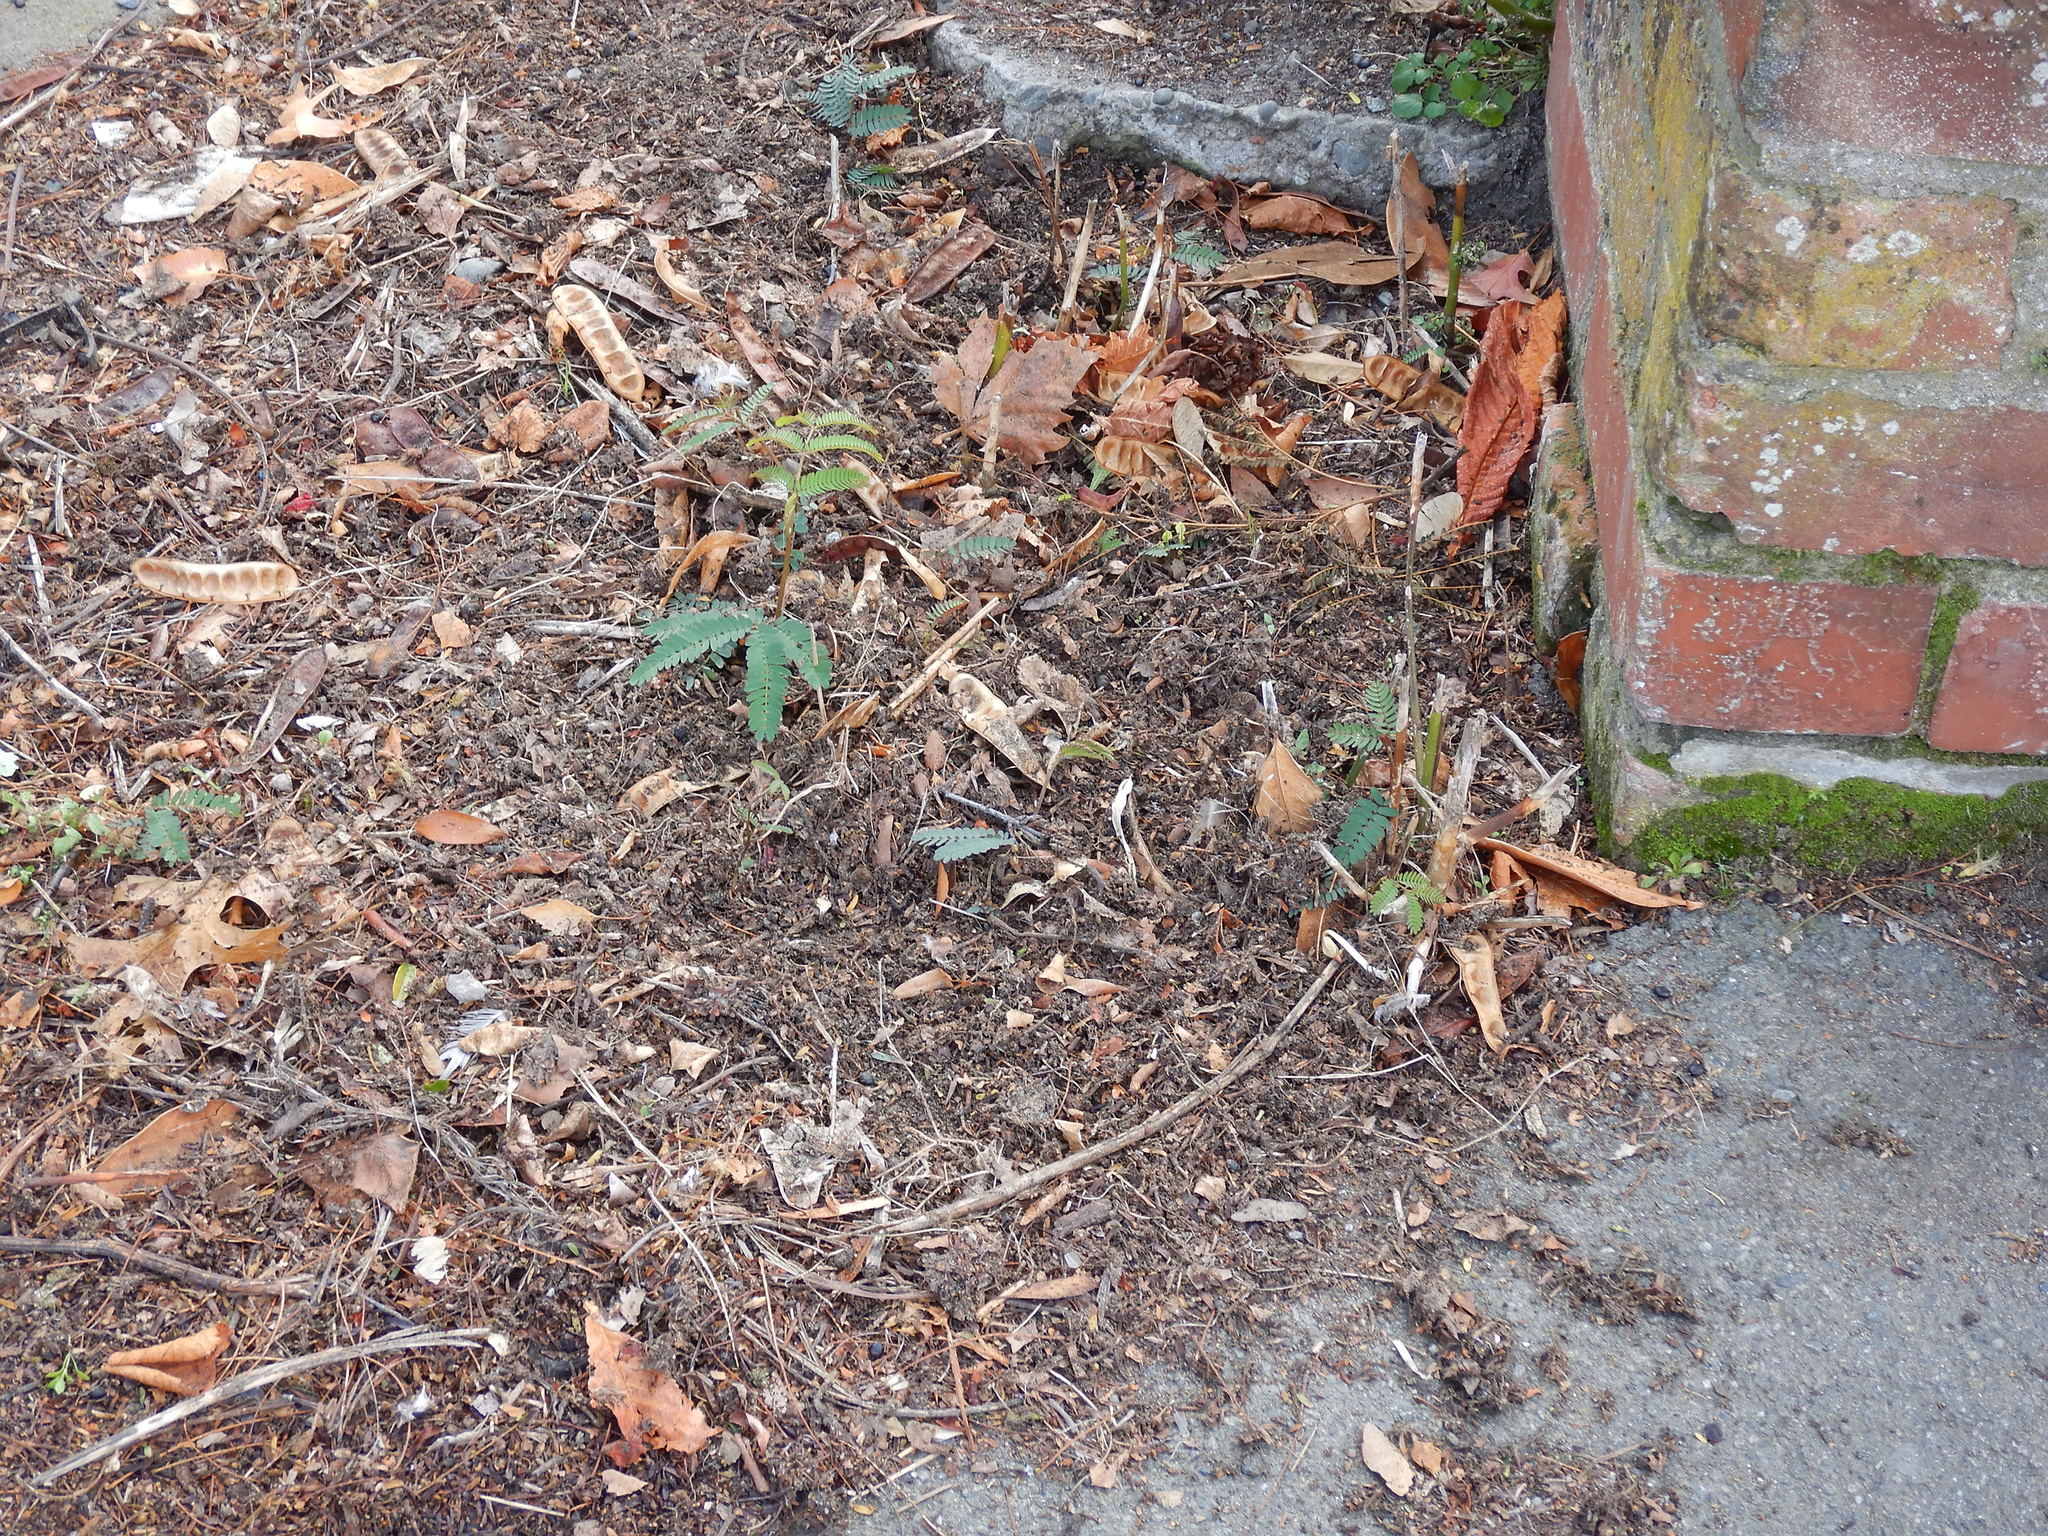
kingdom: Plantae
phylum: Tracheophyta
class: Magnoliopsida
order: Fabales
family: Fabaceae
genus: Paraserianthes
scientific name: Paraserianthes lophantha
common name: Plume albizia
